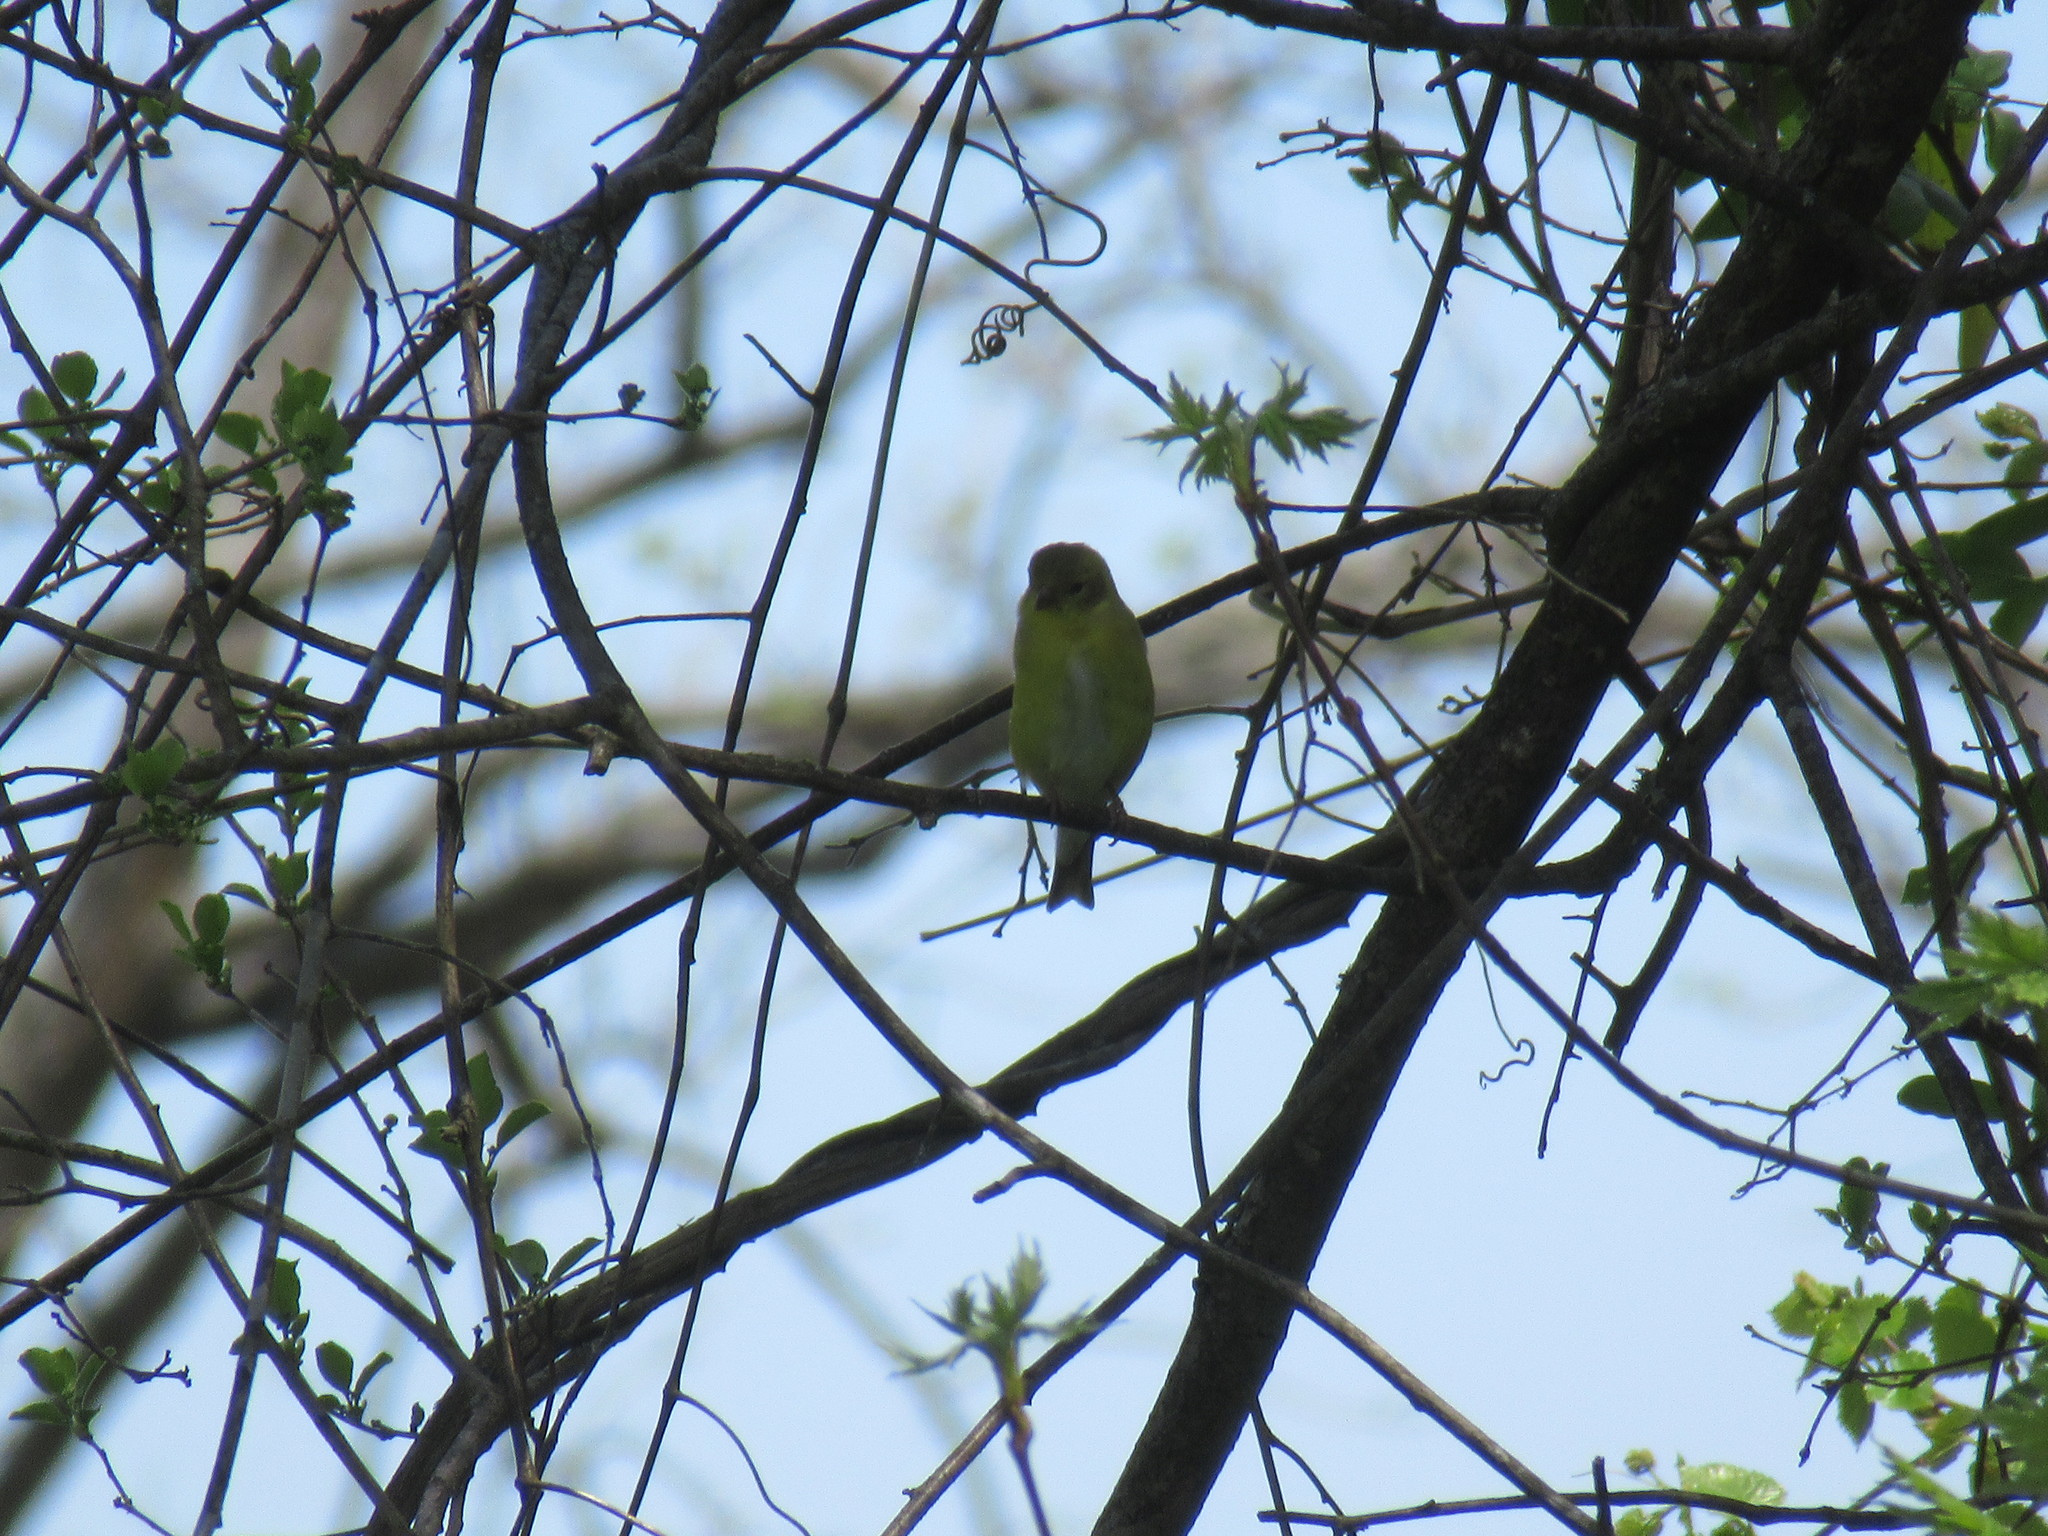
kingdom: Animalia
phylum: Chordata
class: Aves
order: Passeriformes
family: Fringillidae
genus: Spinus
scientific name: Spinus tristis
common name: American goldfinch
